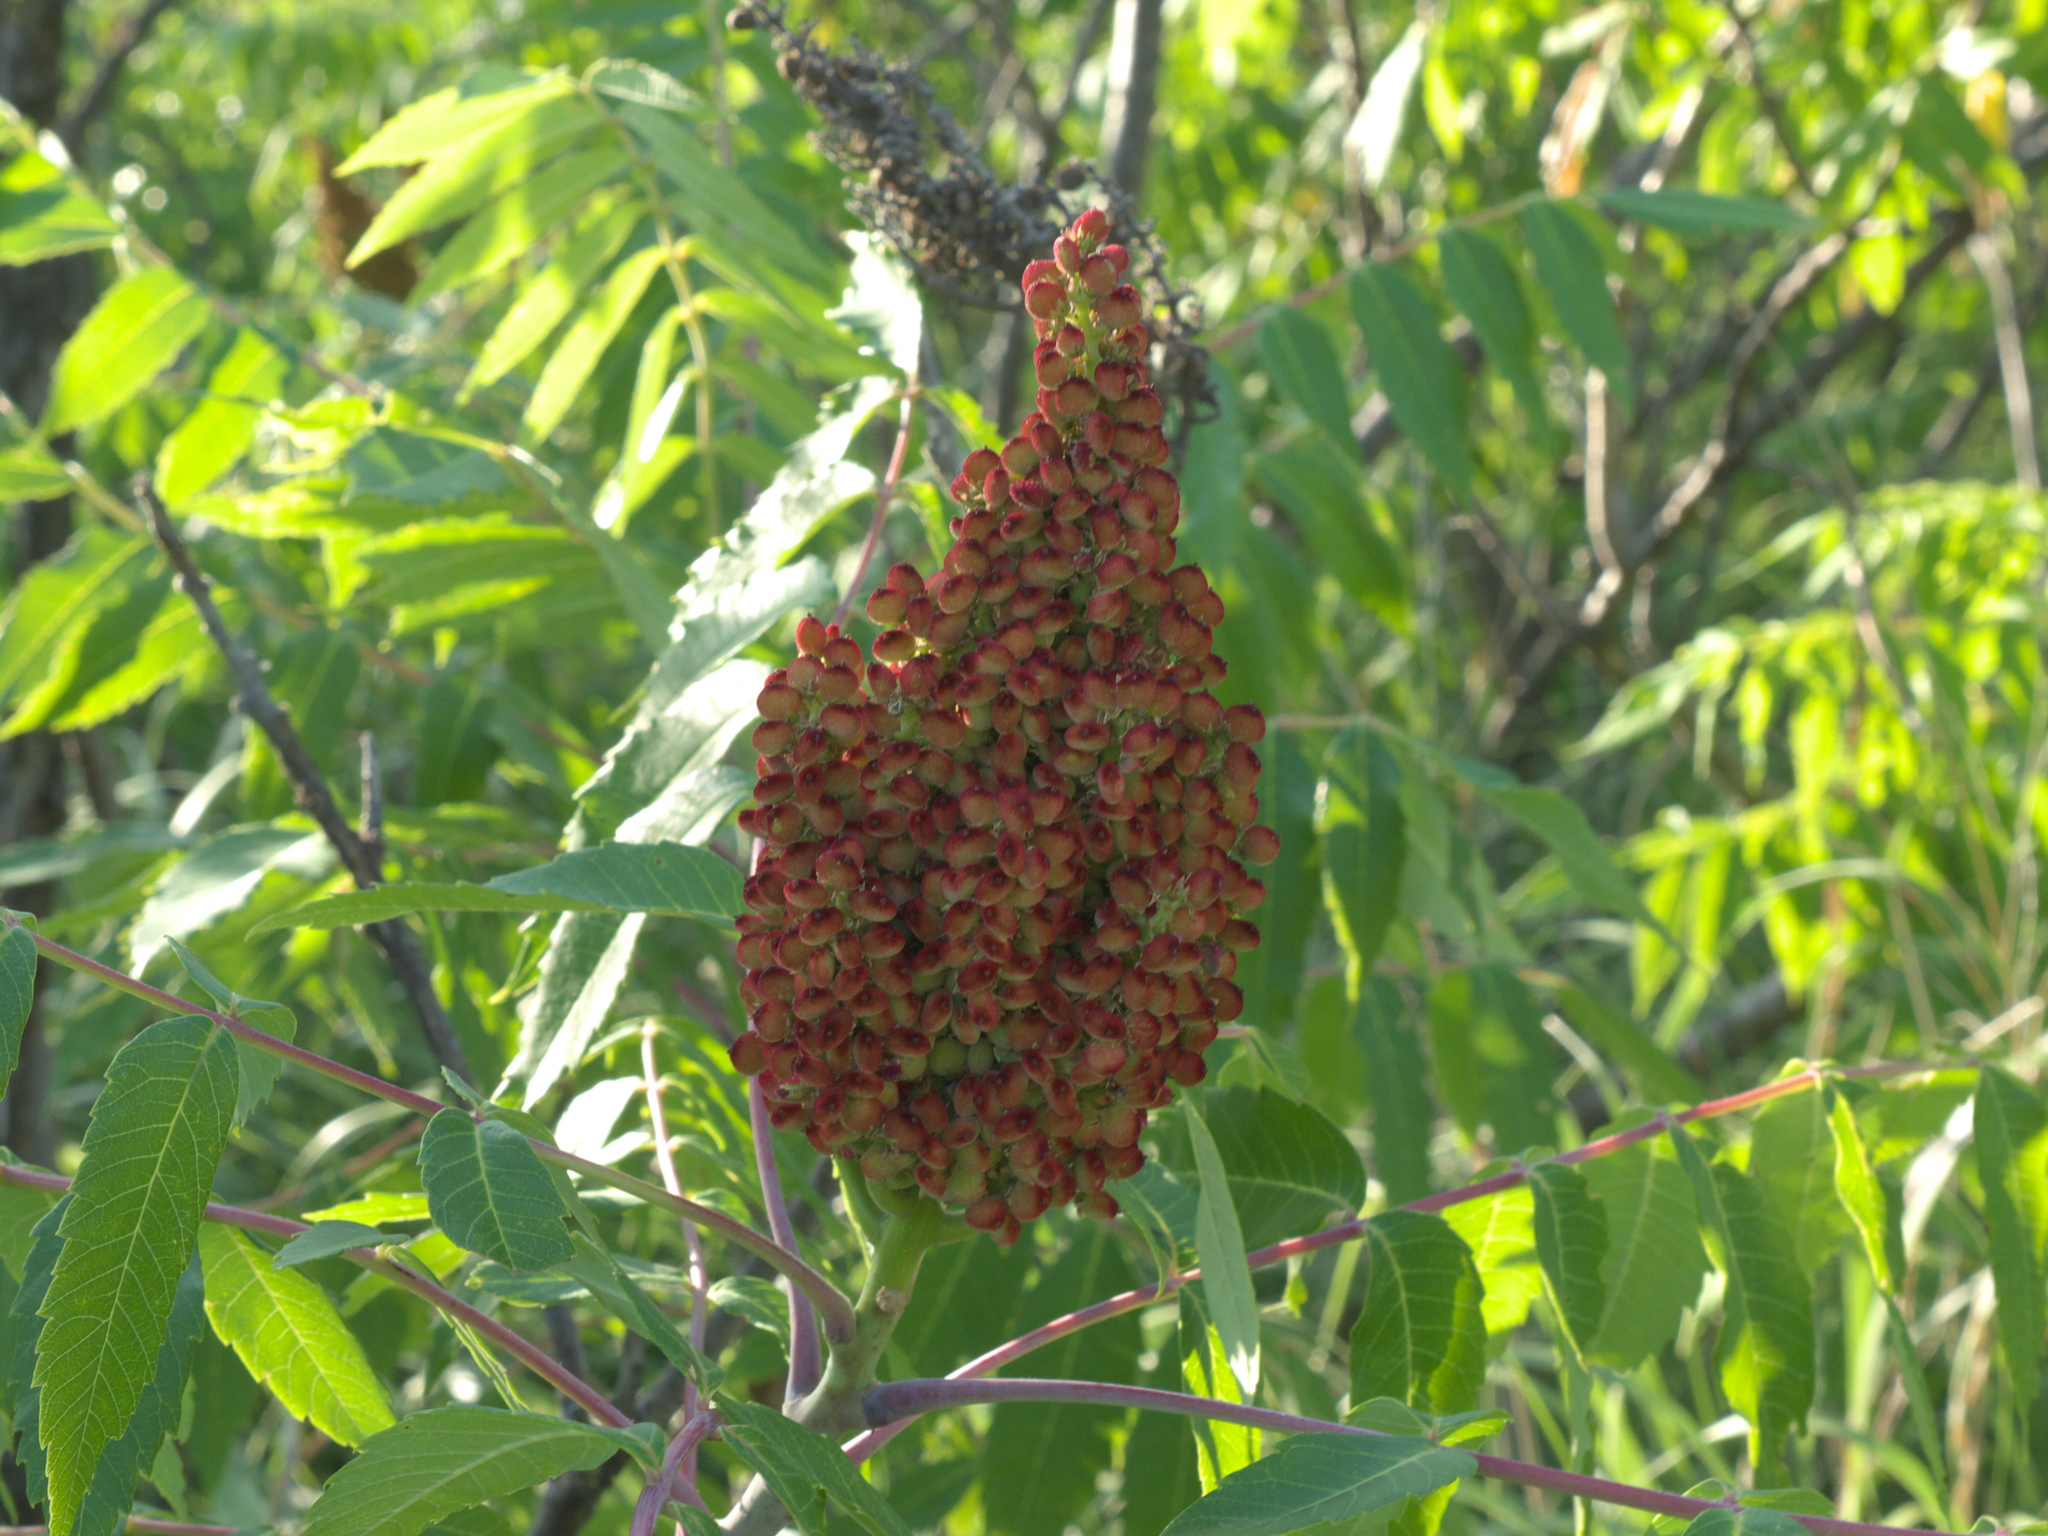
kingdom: Plantae
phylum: Tracheophyta
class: Magnoliopsida
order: Sapindales
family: Anacardiaceae
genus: Rhus
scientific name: Rhus glabra
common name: Scarlet sumac
